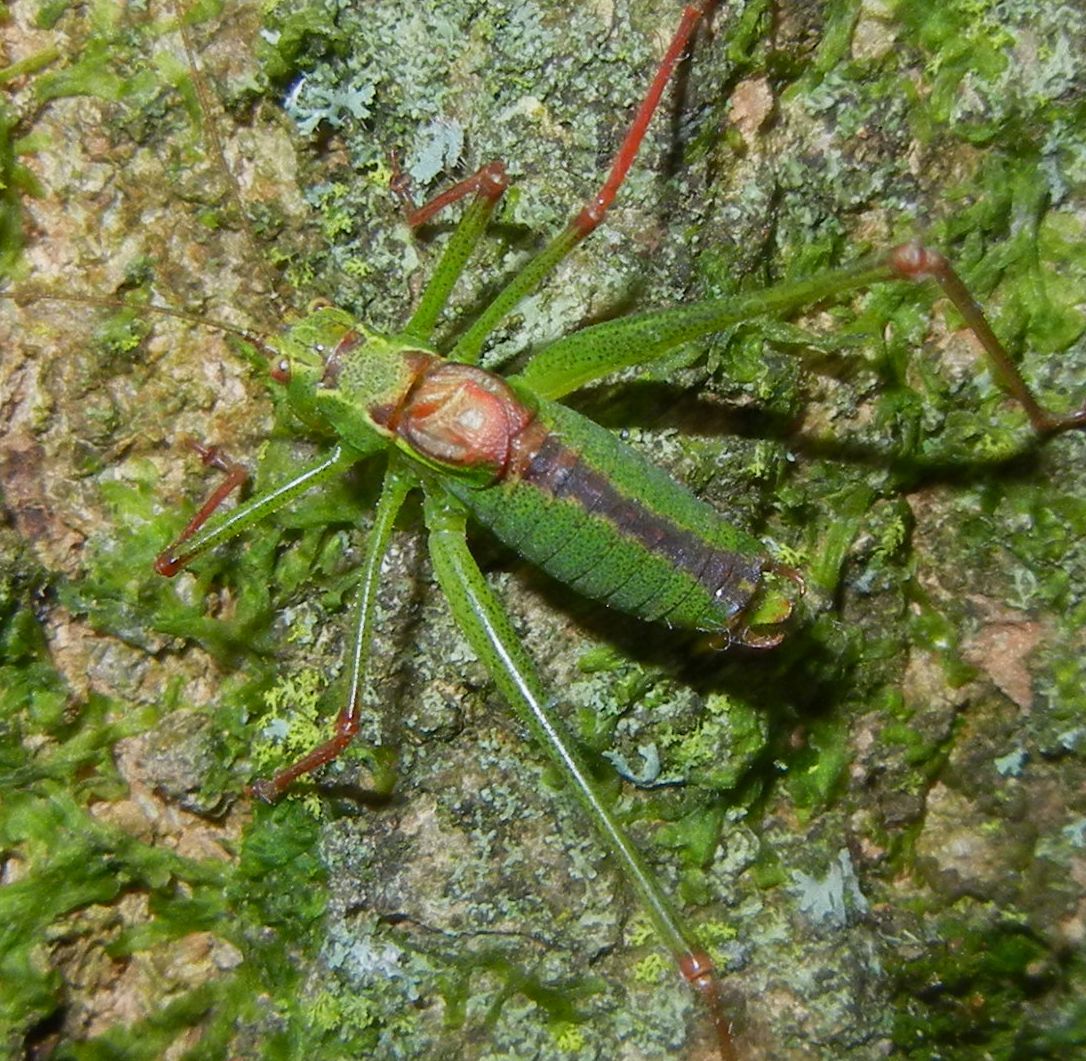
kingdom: Animalia
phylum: Arthropoda
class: Insecta
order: Orthoptera
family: Tettigoniidae
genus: Leptophyes
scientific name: Leptophyes punctatissima
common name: Speckled bush-cricket
